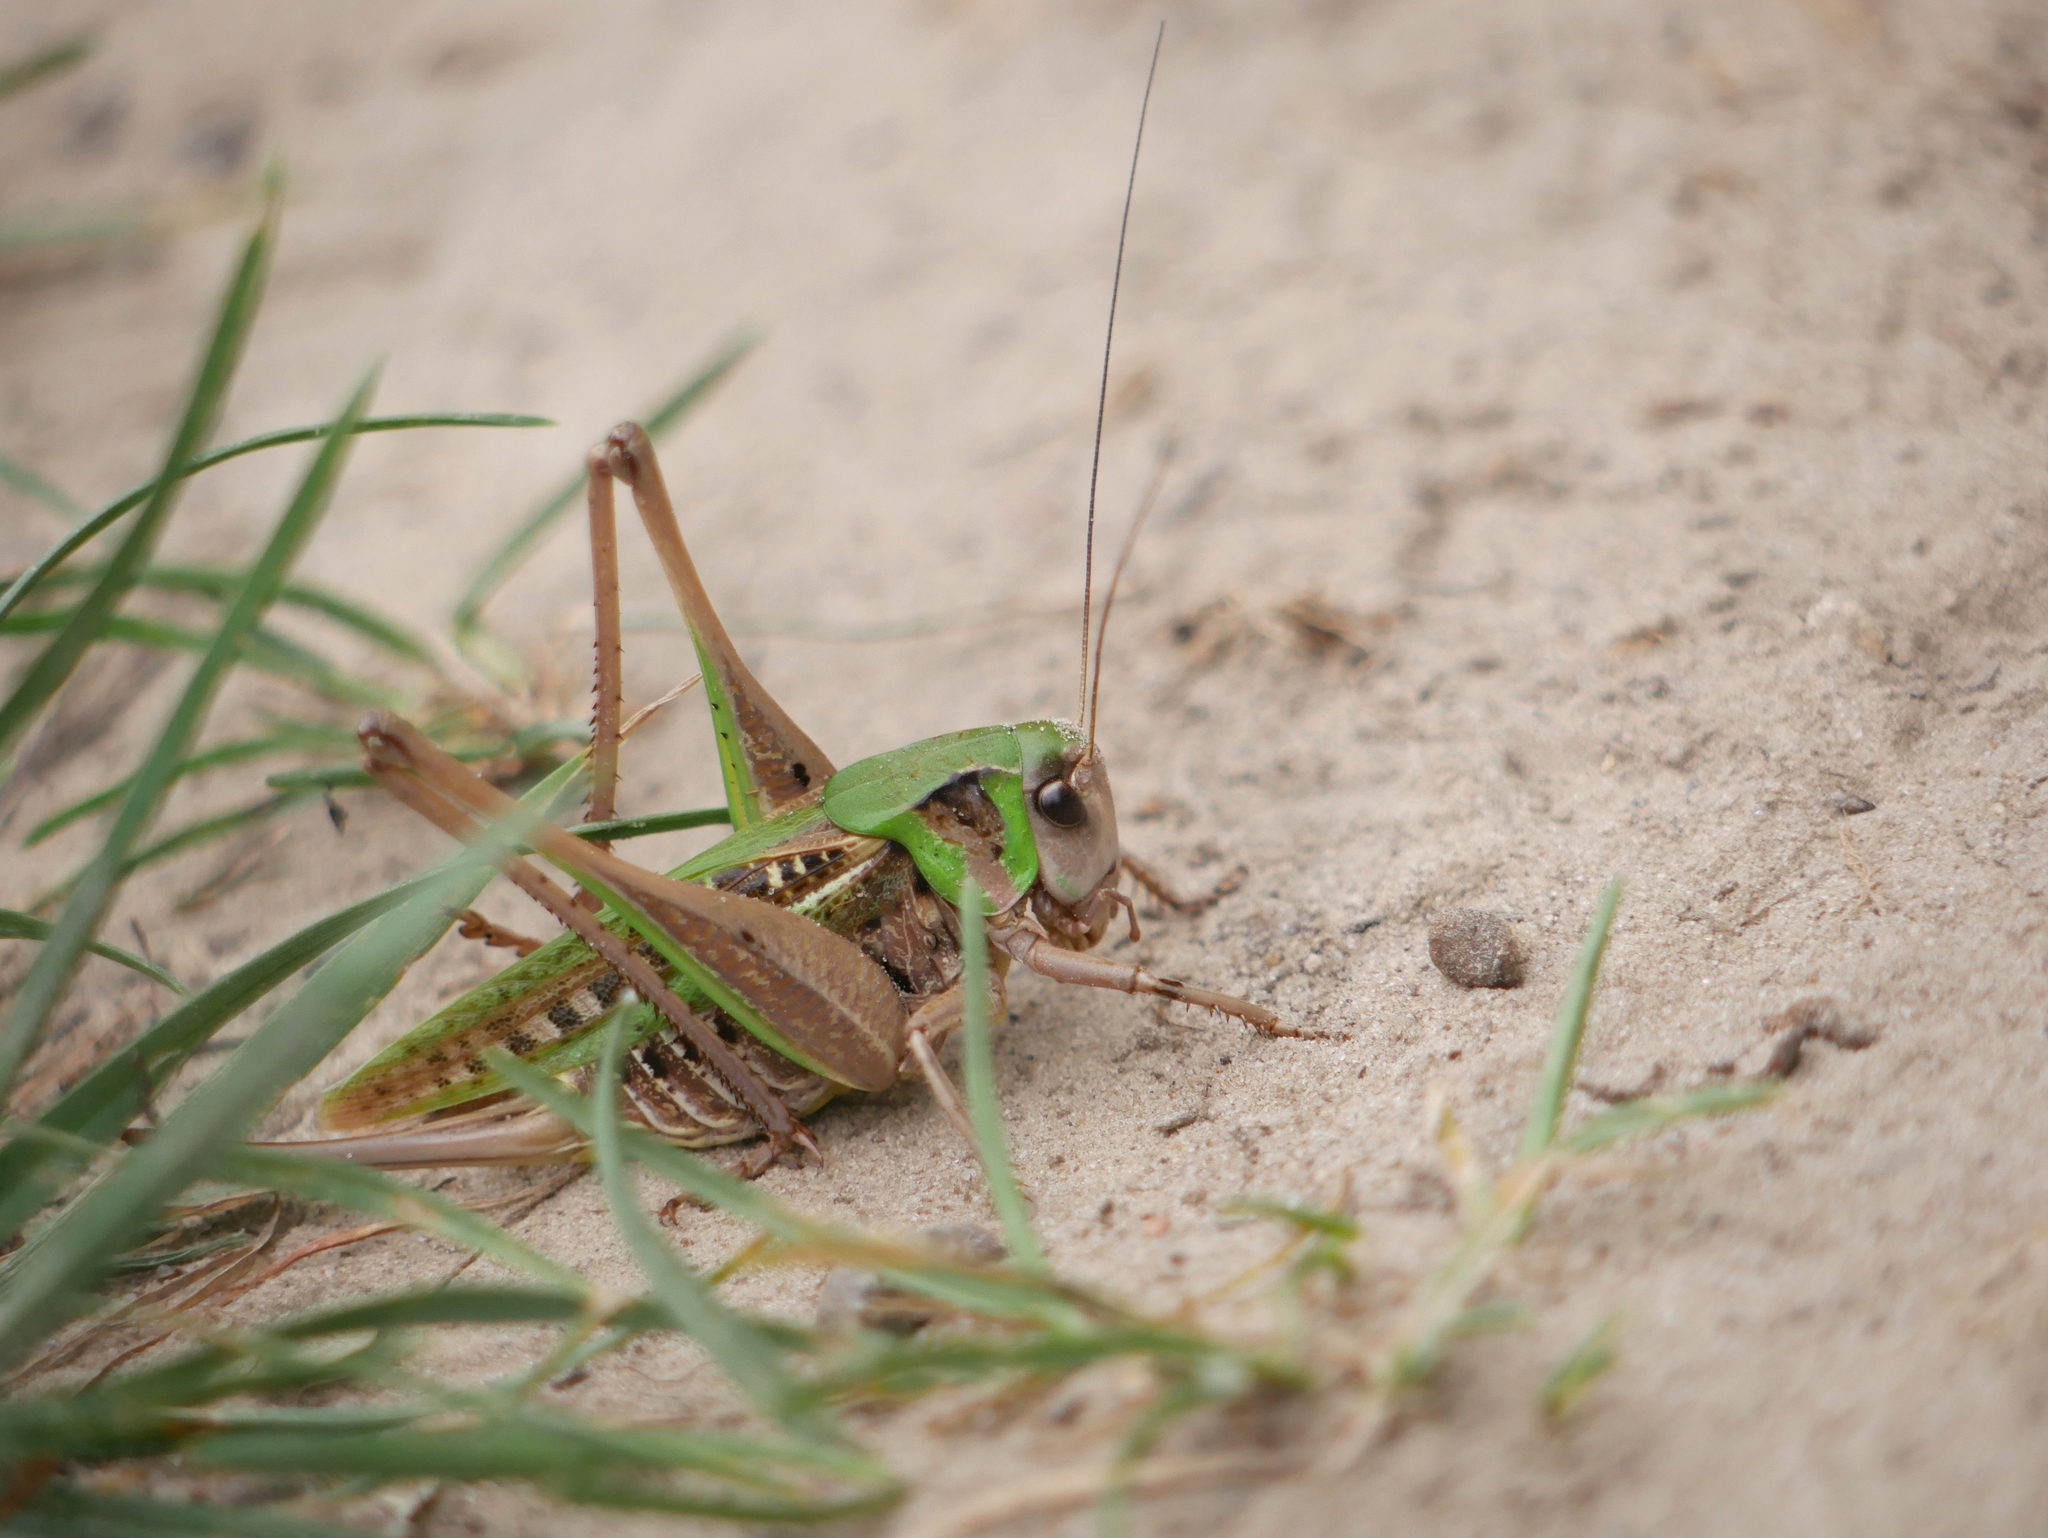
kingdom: Animalia
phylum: Arthropoda
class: Insecta
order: Orthoptera
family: Tettigoniidae
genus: Decticus
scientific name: Decticus verrucivorus
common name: Wart-biter
